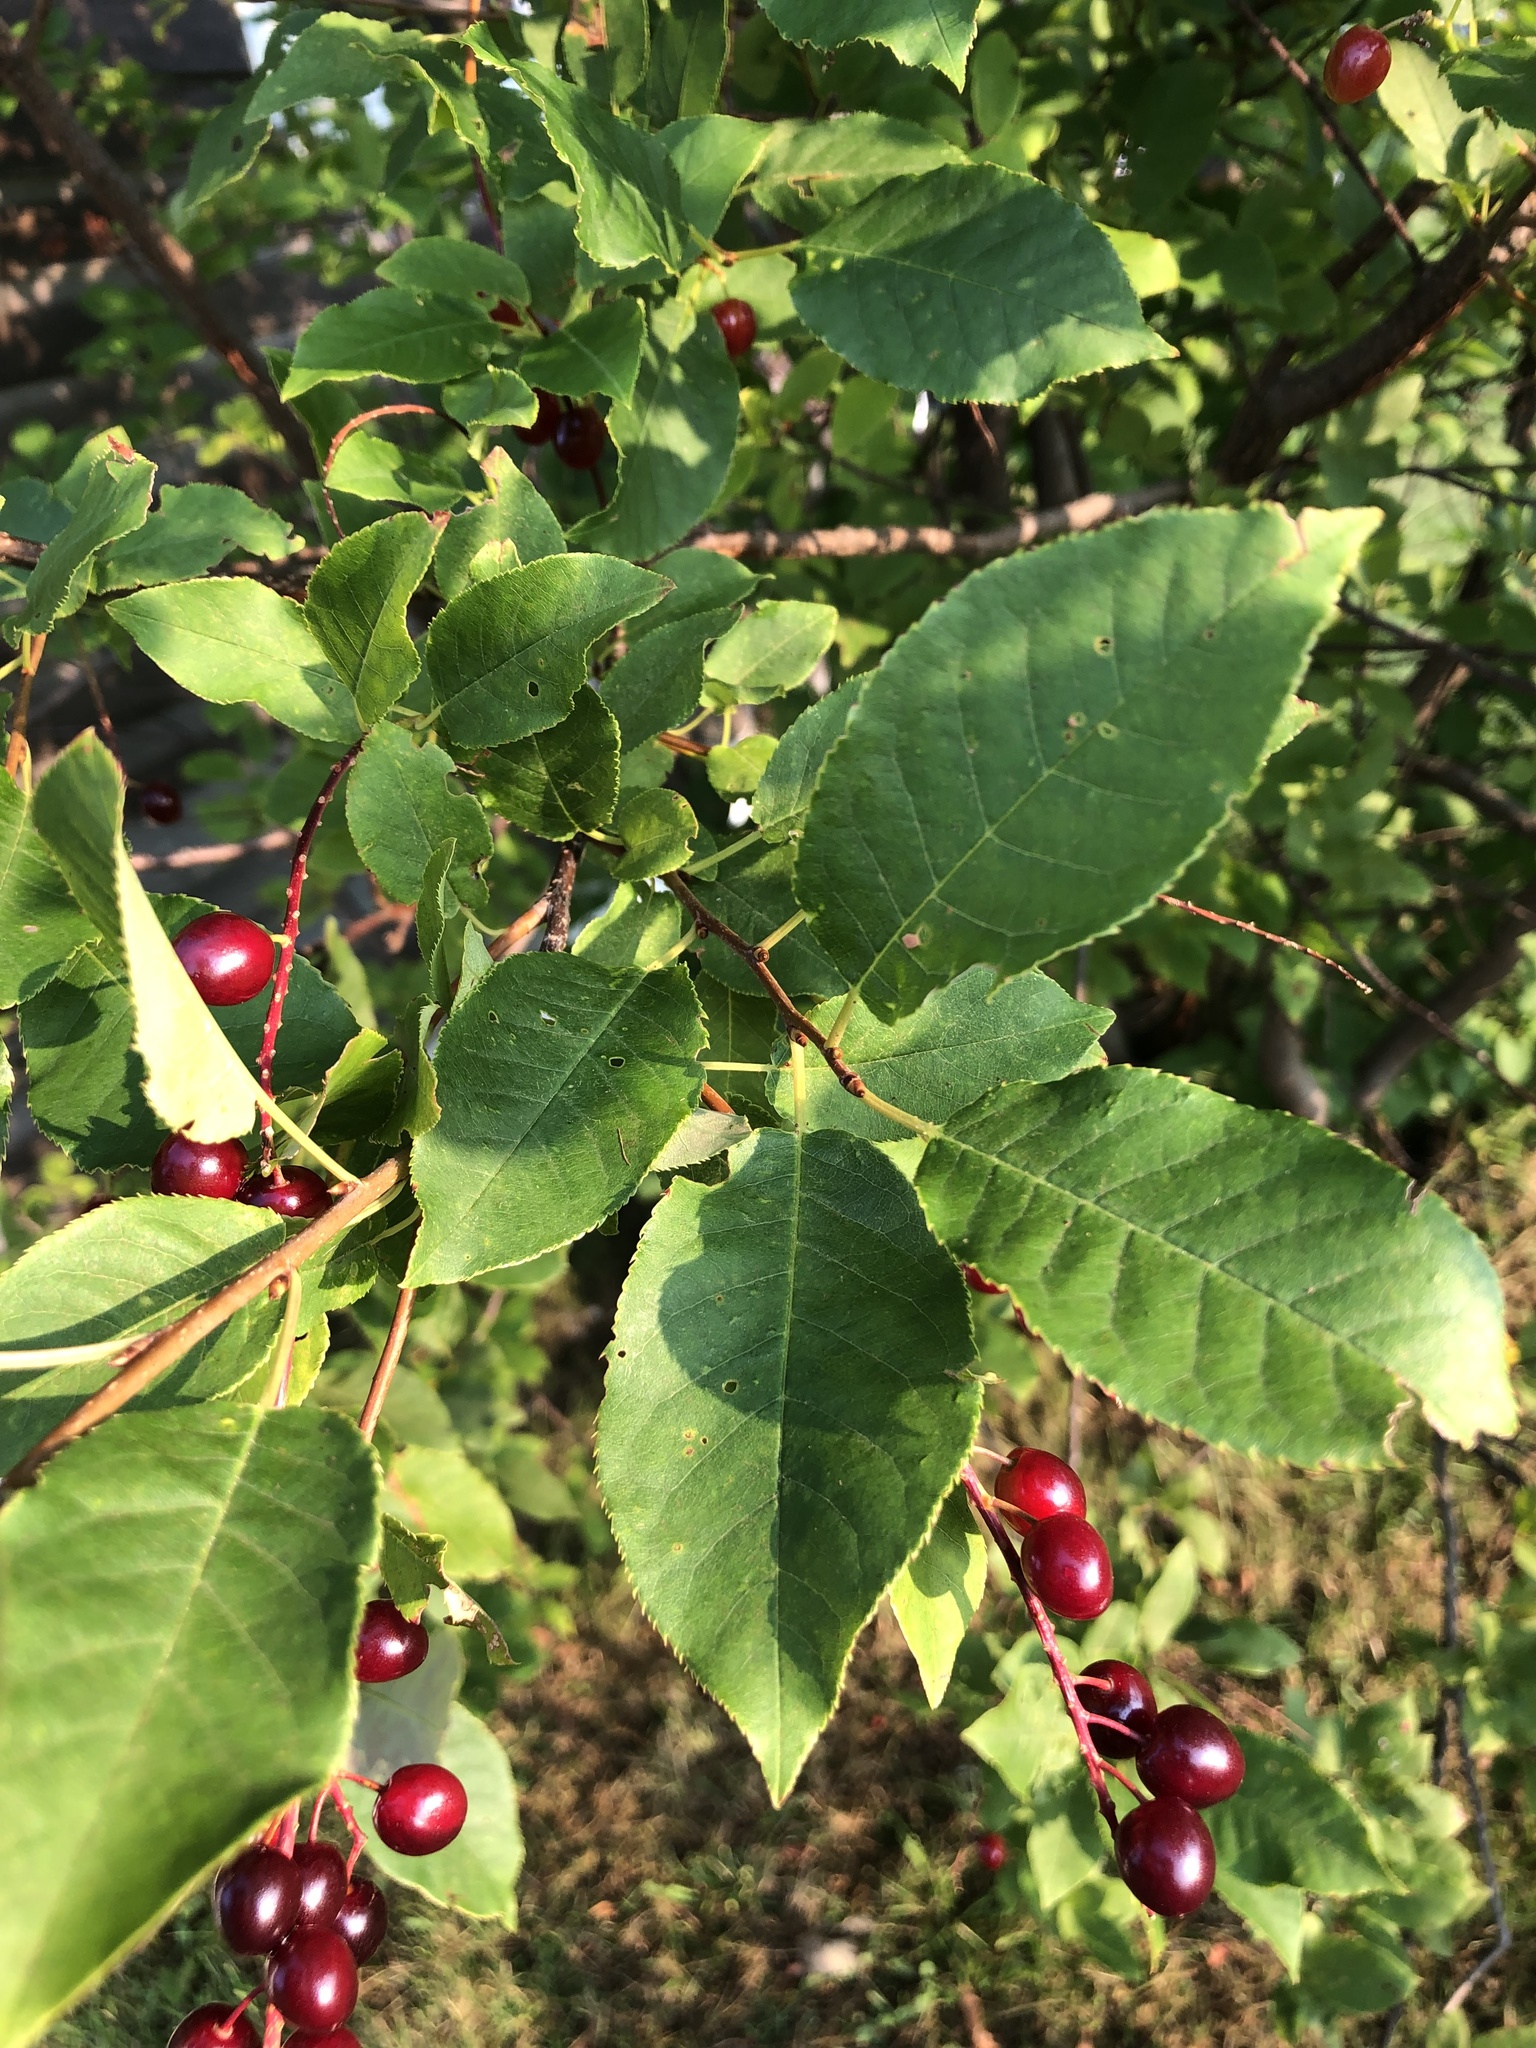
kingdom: Plantae
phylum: Tracheophyta
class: Magnoliopsida
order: Rosales
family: Rosaceae
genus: Prunus
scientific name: Prunus virginiana
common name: Chokecherry
